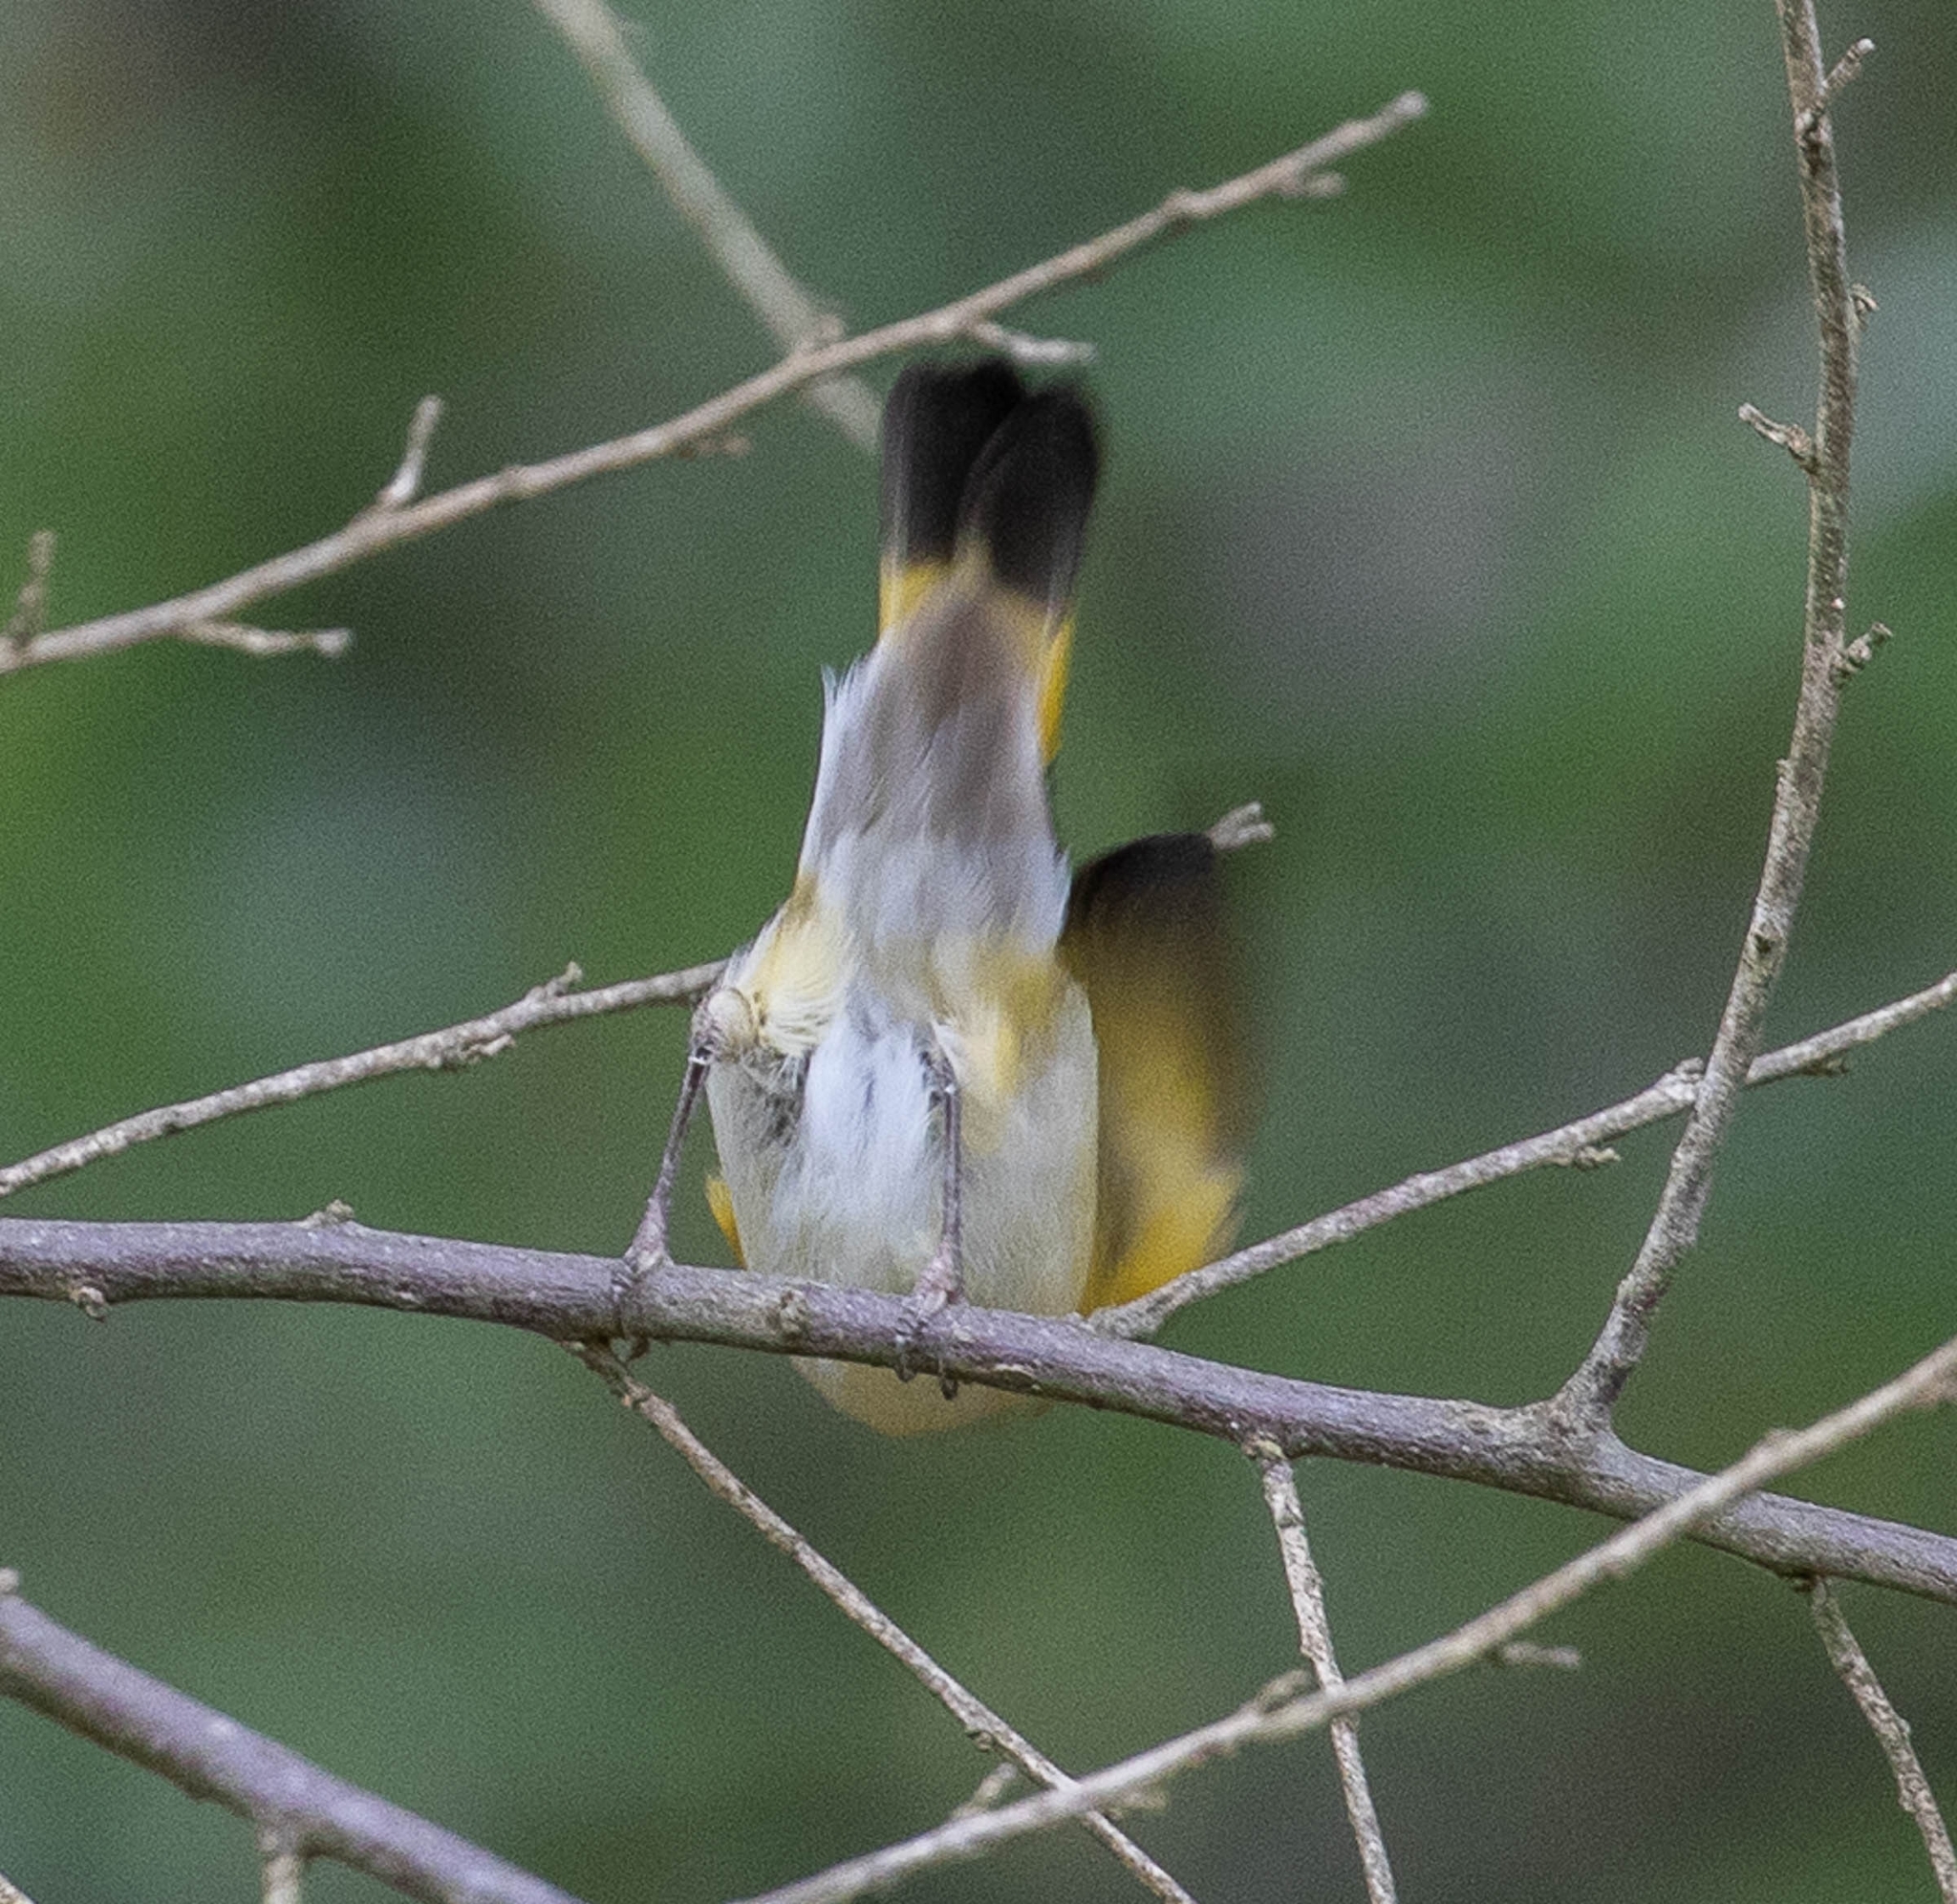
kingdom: Animalia
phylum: Chordata
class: Aves
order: Passeriformes
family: Parulidae
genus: Setophaga
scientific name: Setophaga ruticilla
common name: American redstart
